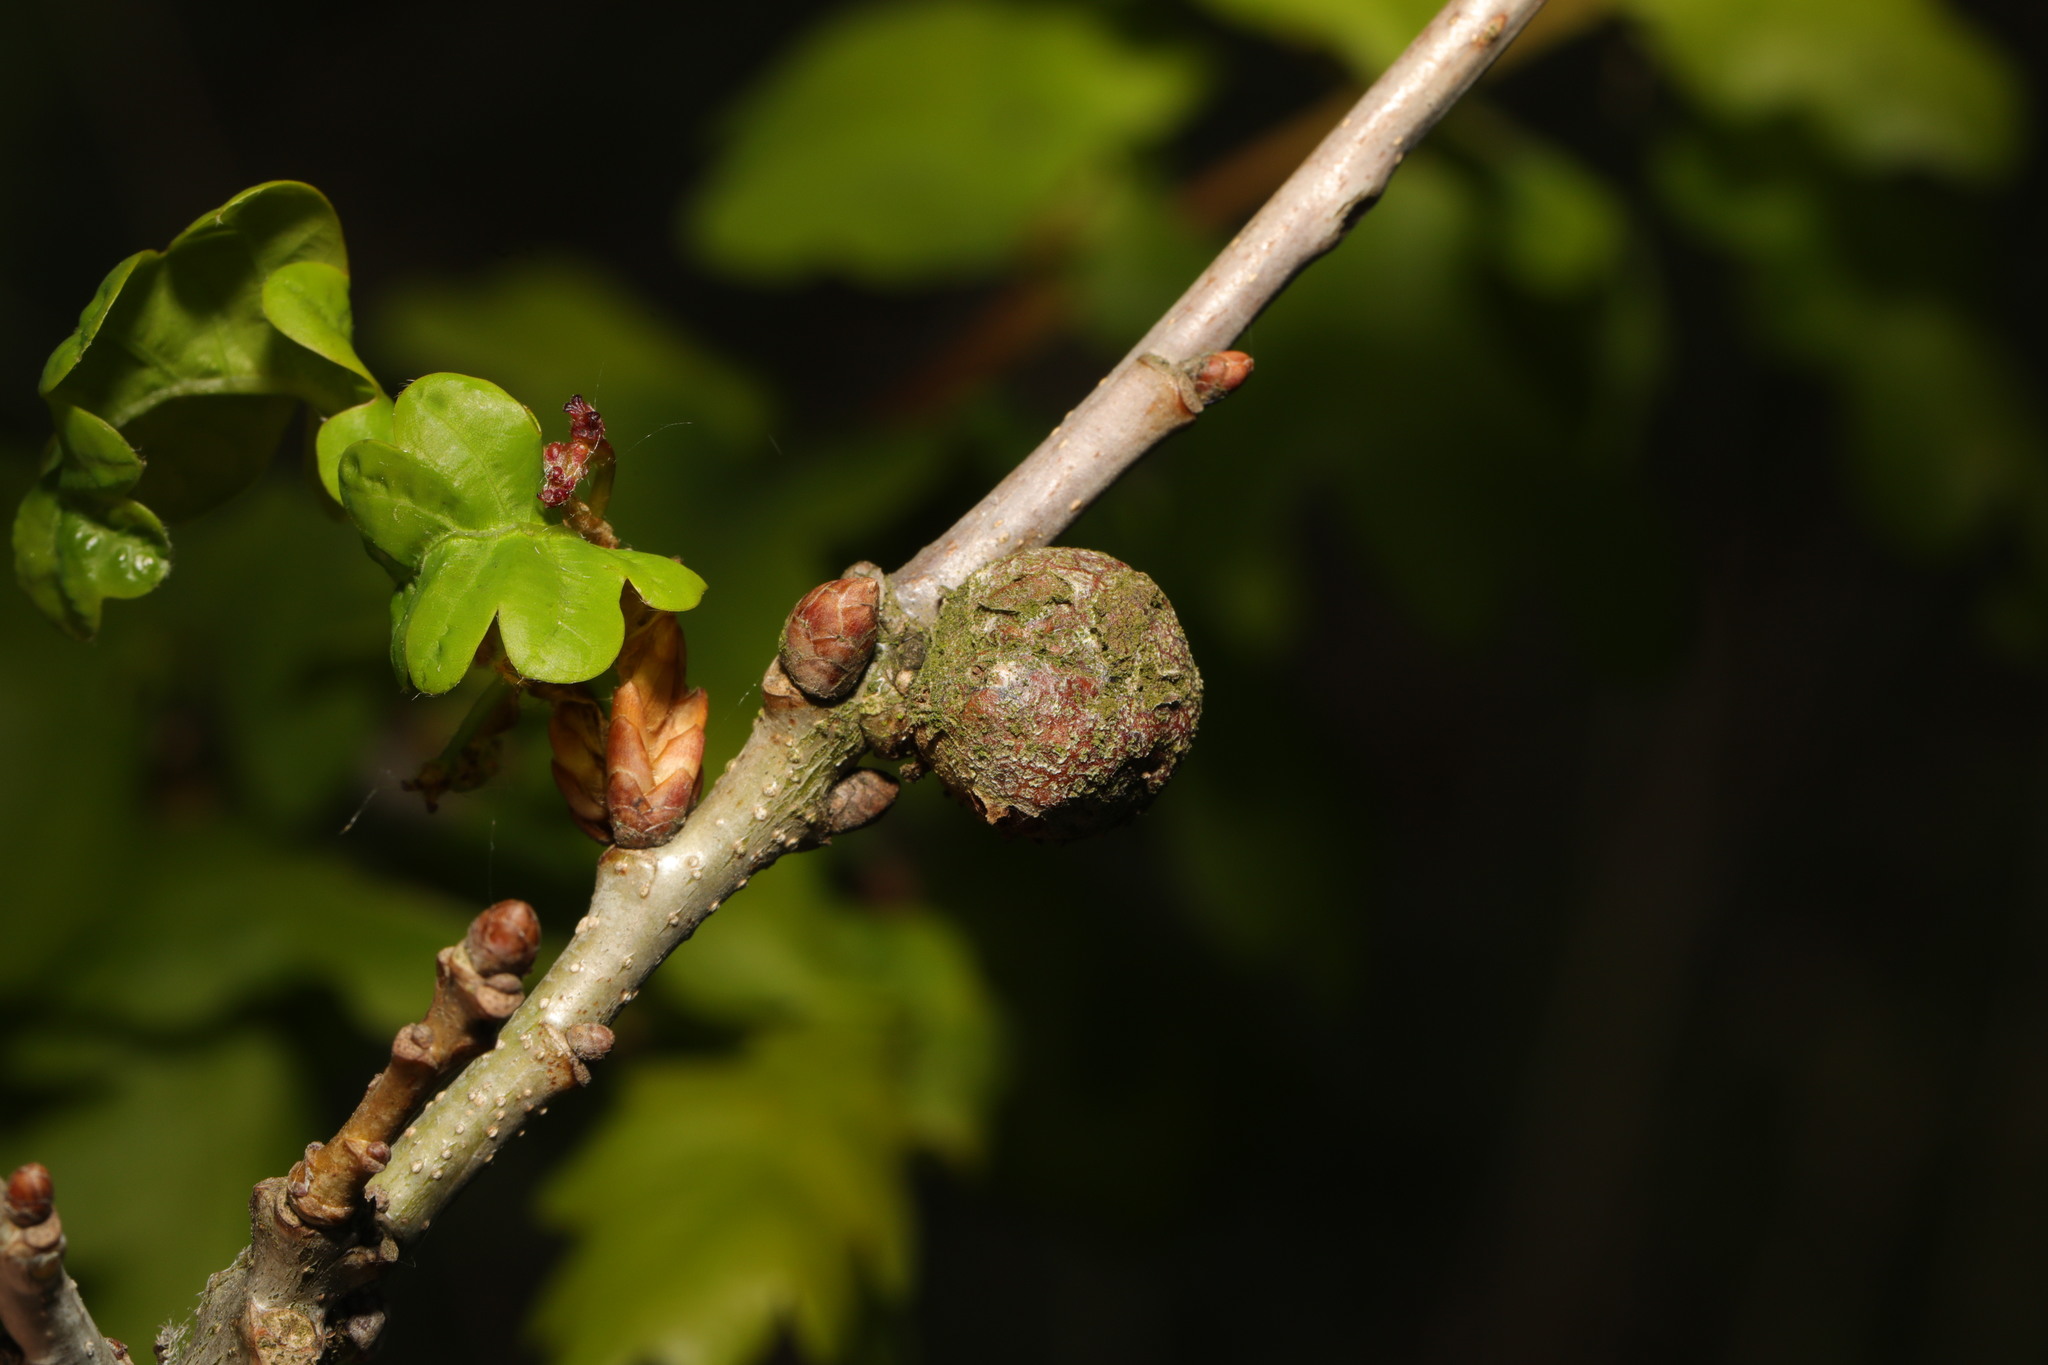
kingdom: Animalia
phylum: Arthropoda
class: Insecta
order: Hymenoptera
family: Cynipidae
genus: Andricus
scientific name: Andricus lignicolus
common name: Cola-nut gall
